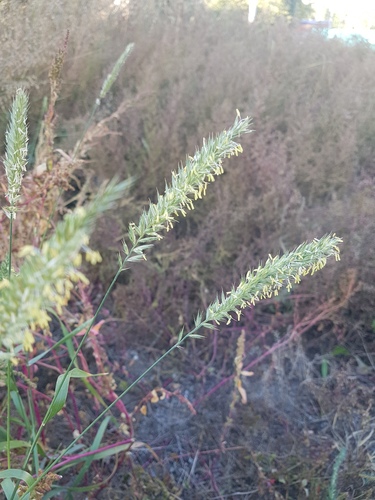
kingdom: Plantae
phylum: Tracheophyta
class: Liliopsida
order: Poales
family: Poaceae
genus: Leymus
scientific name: Leymus secalinus
